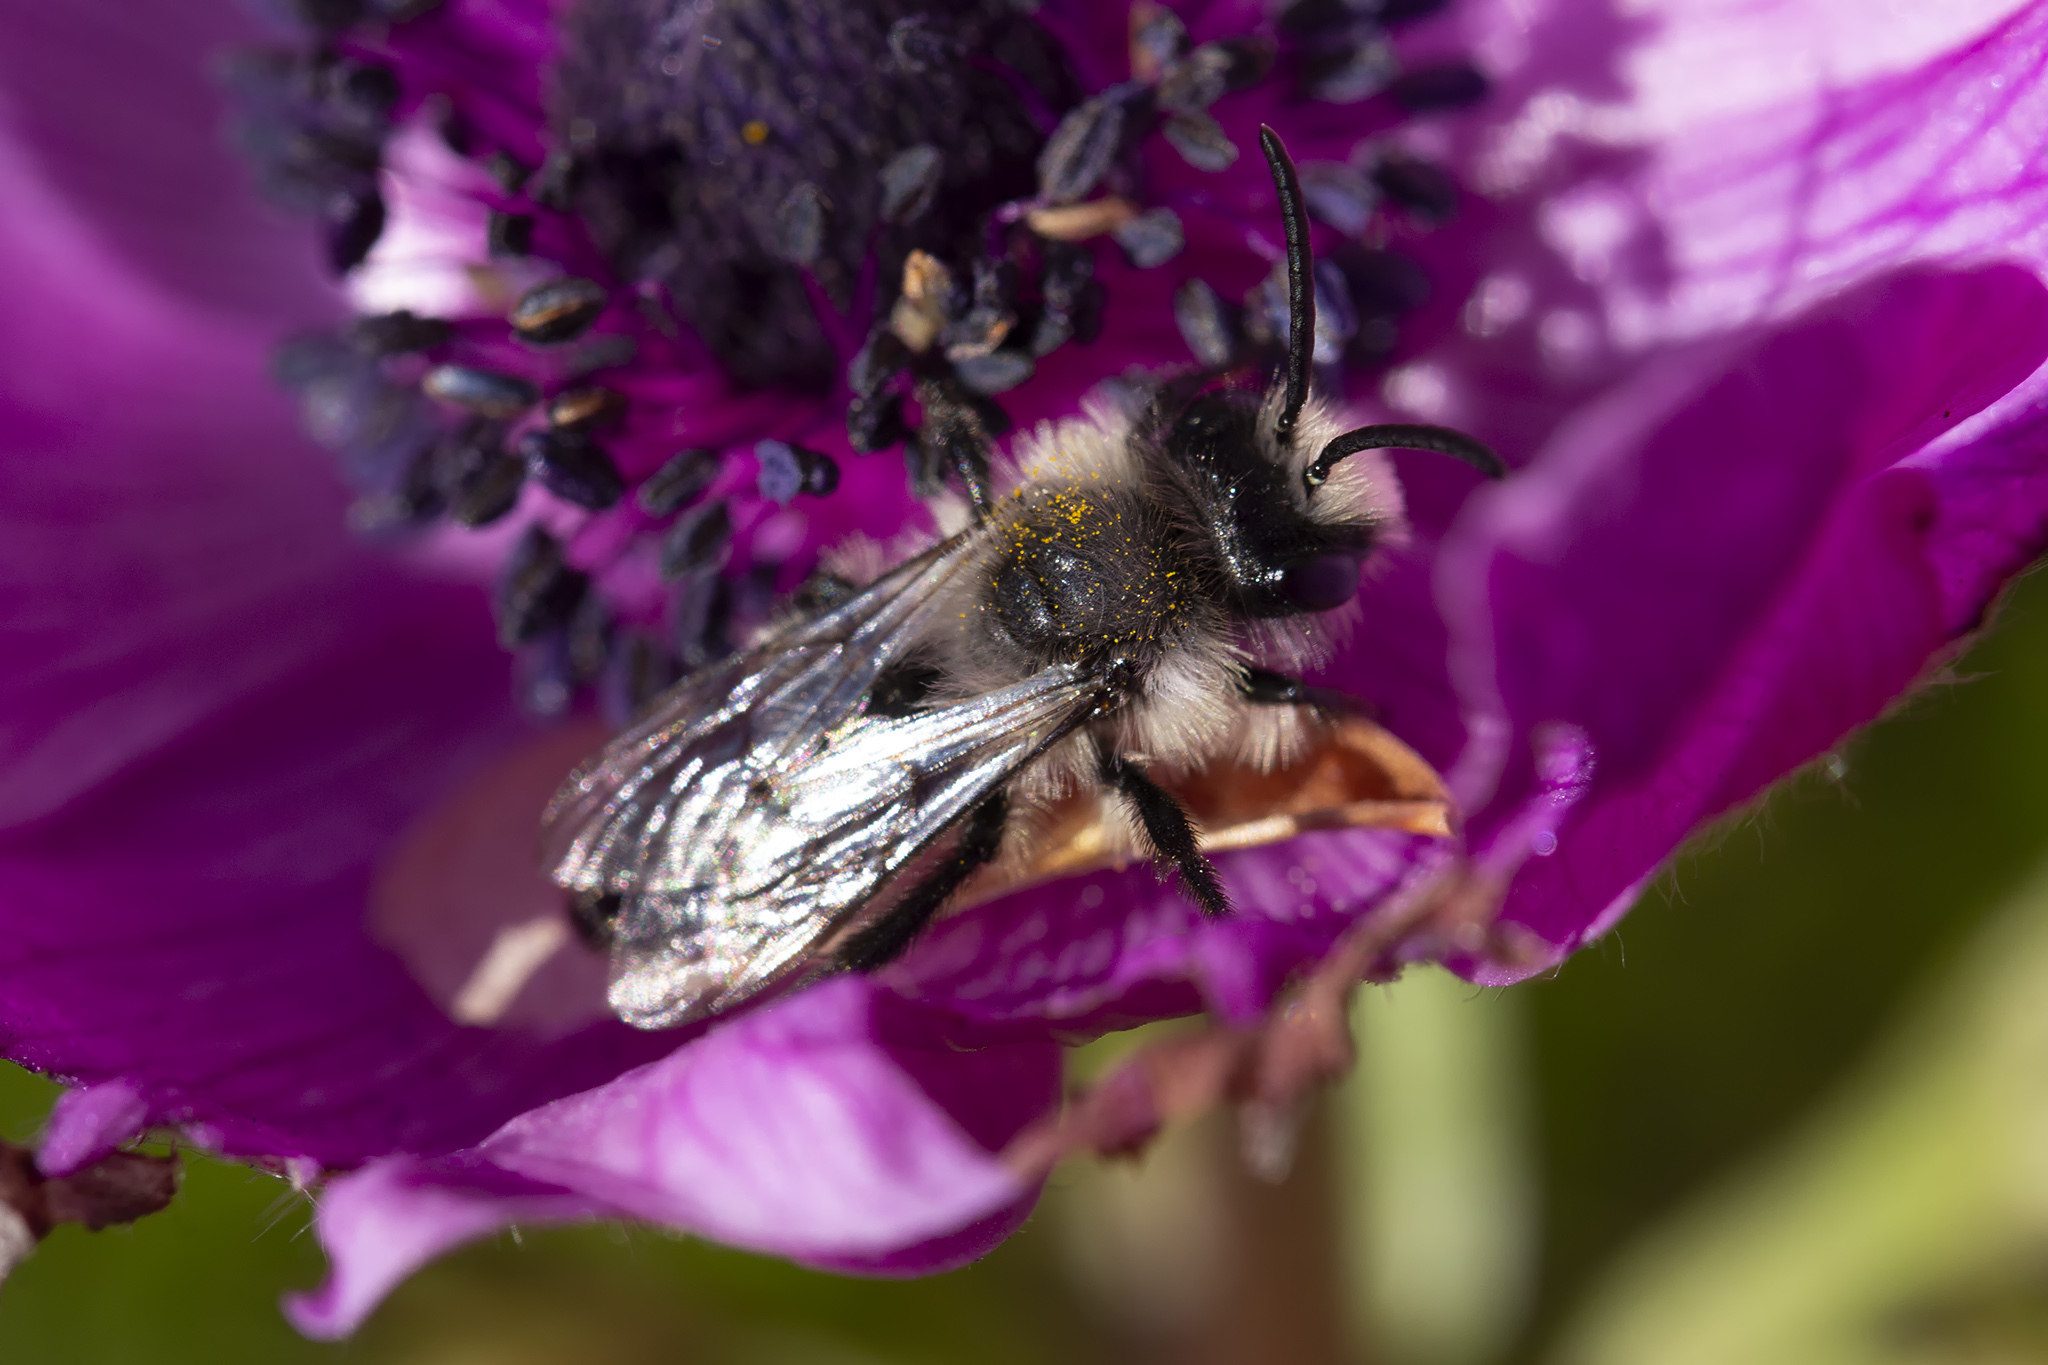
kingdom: Animalia
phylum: Arthropoda
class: Insecta
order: Hymenoptera
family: Andrenidae
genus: Andrena
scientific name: Andrena cineraria
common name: Ashy mining bee
